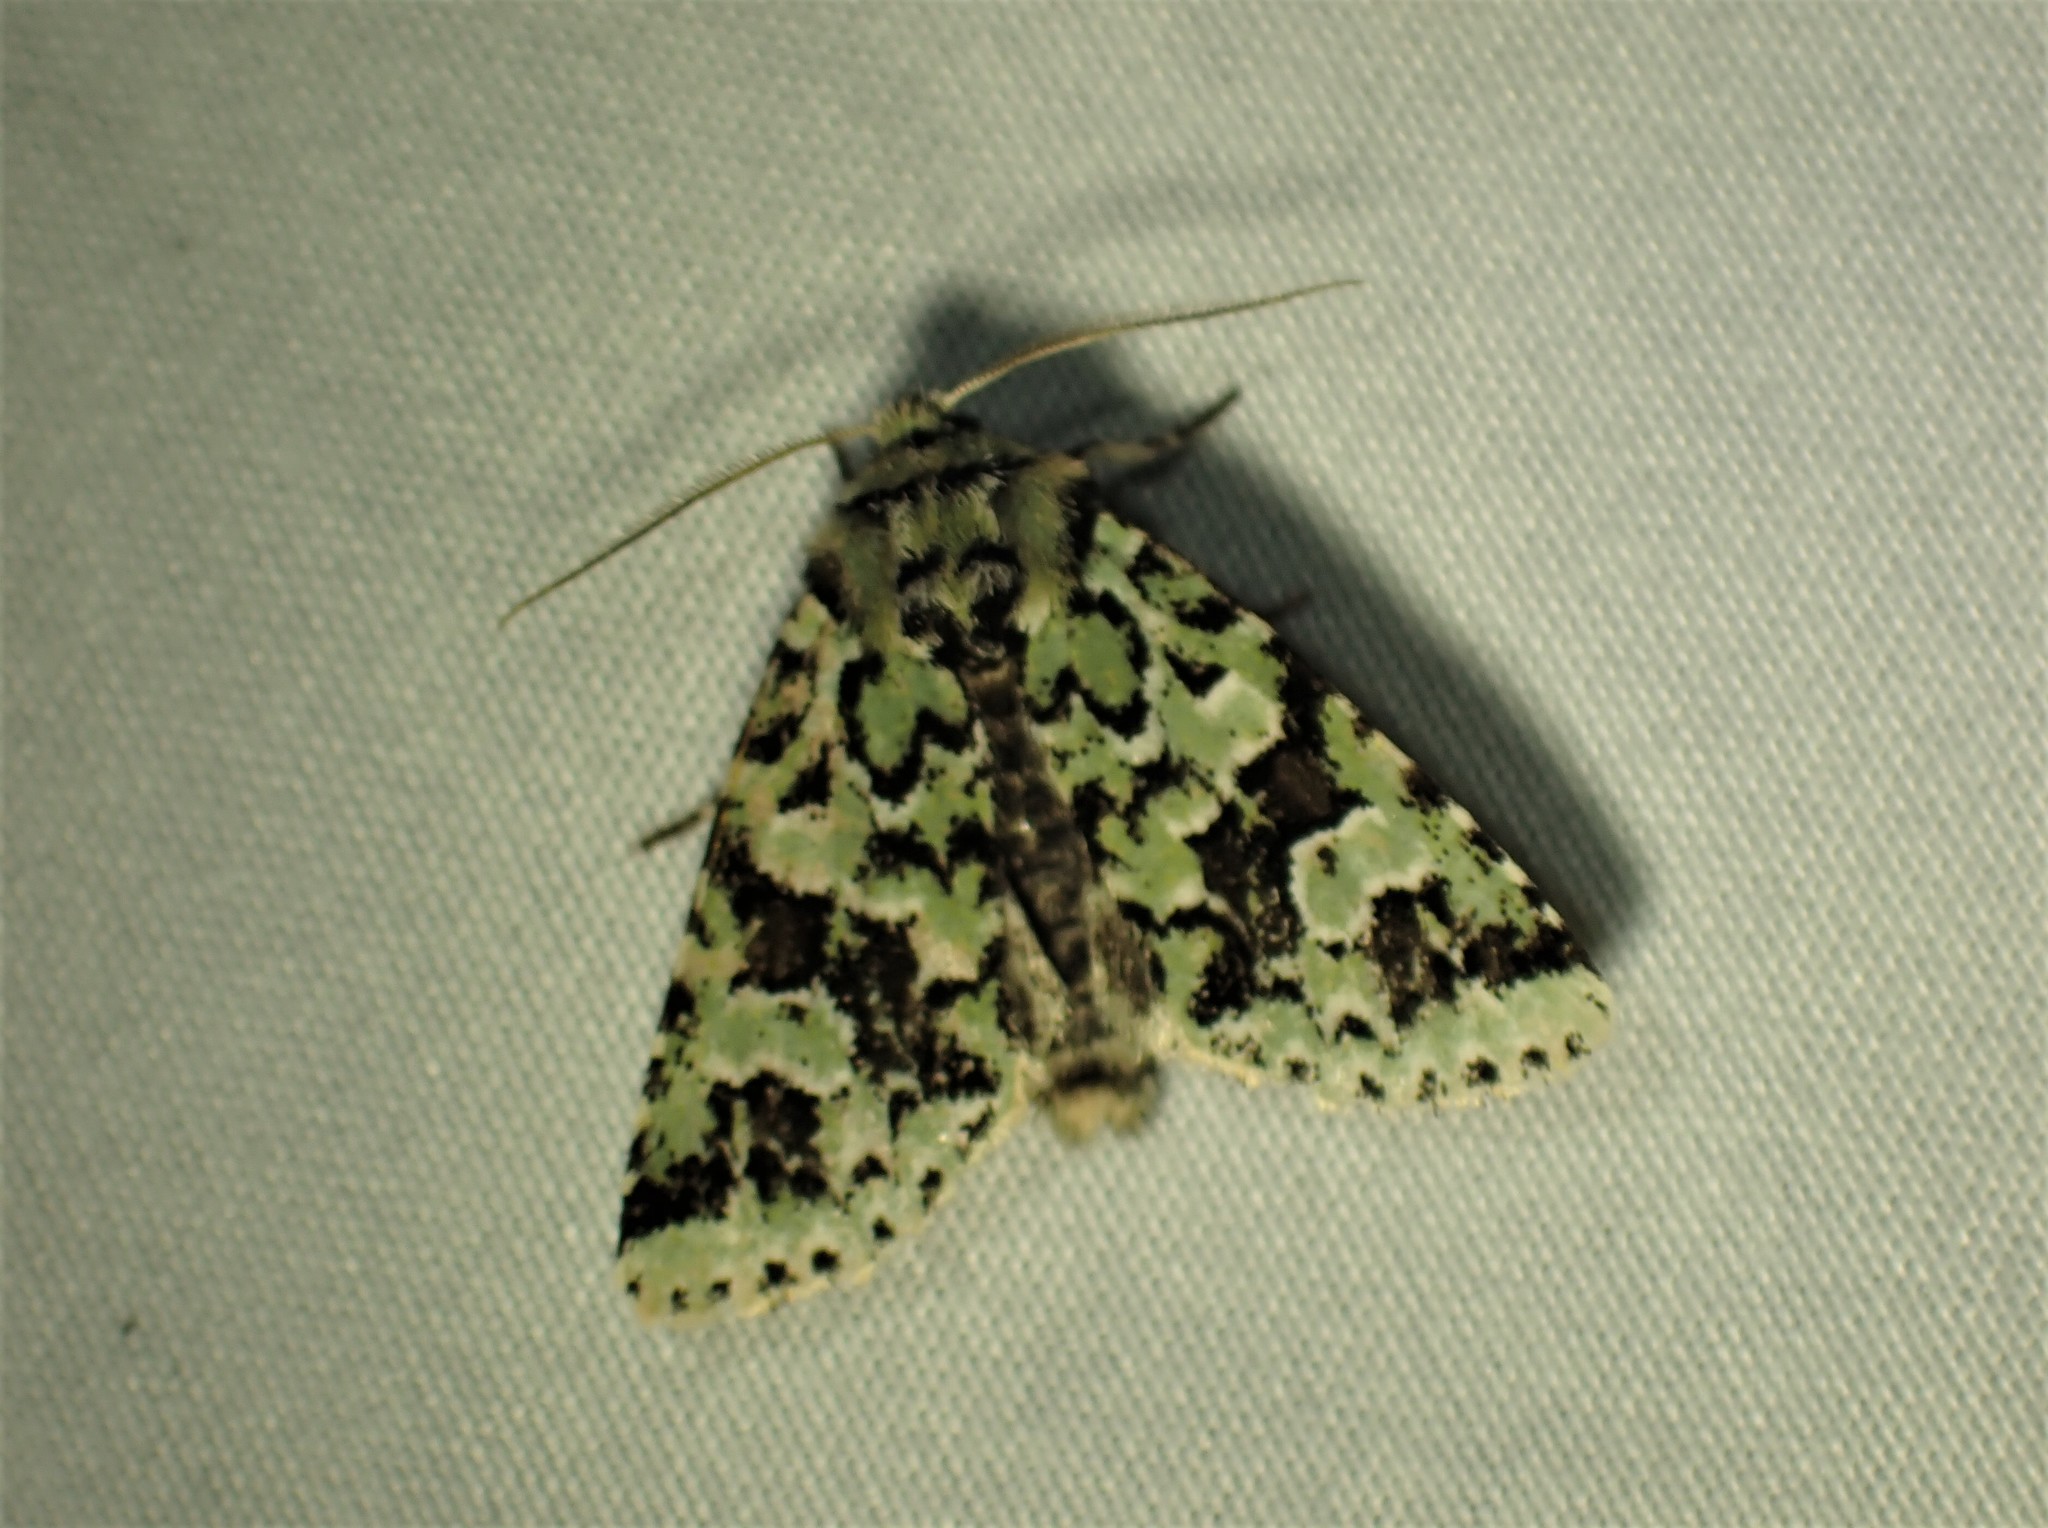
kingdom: Animalia
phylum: Arthropoda
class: Insecta
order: Lepidoptera
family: Noctuidae
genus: Feralia
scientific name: Feralia comstocki
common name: Comstock's sallow
